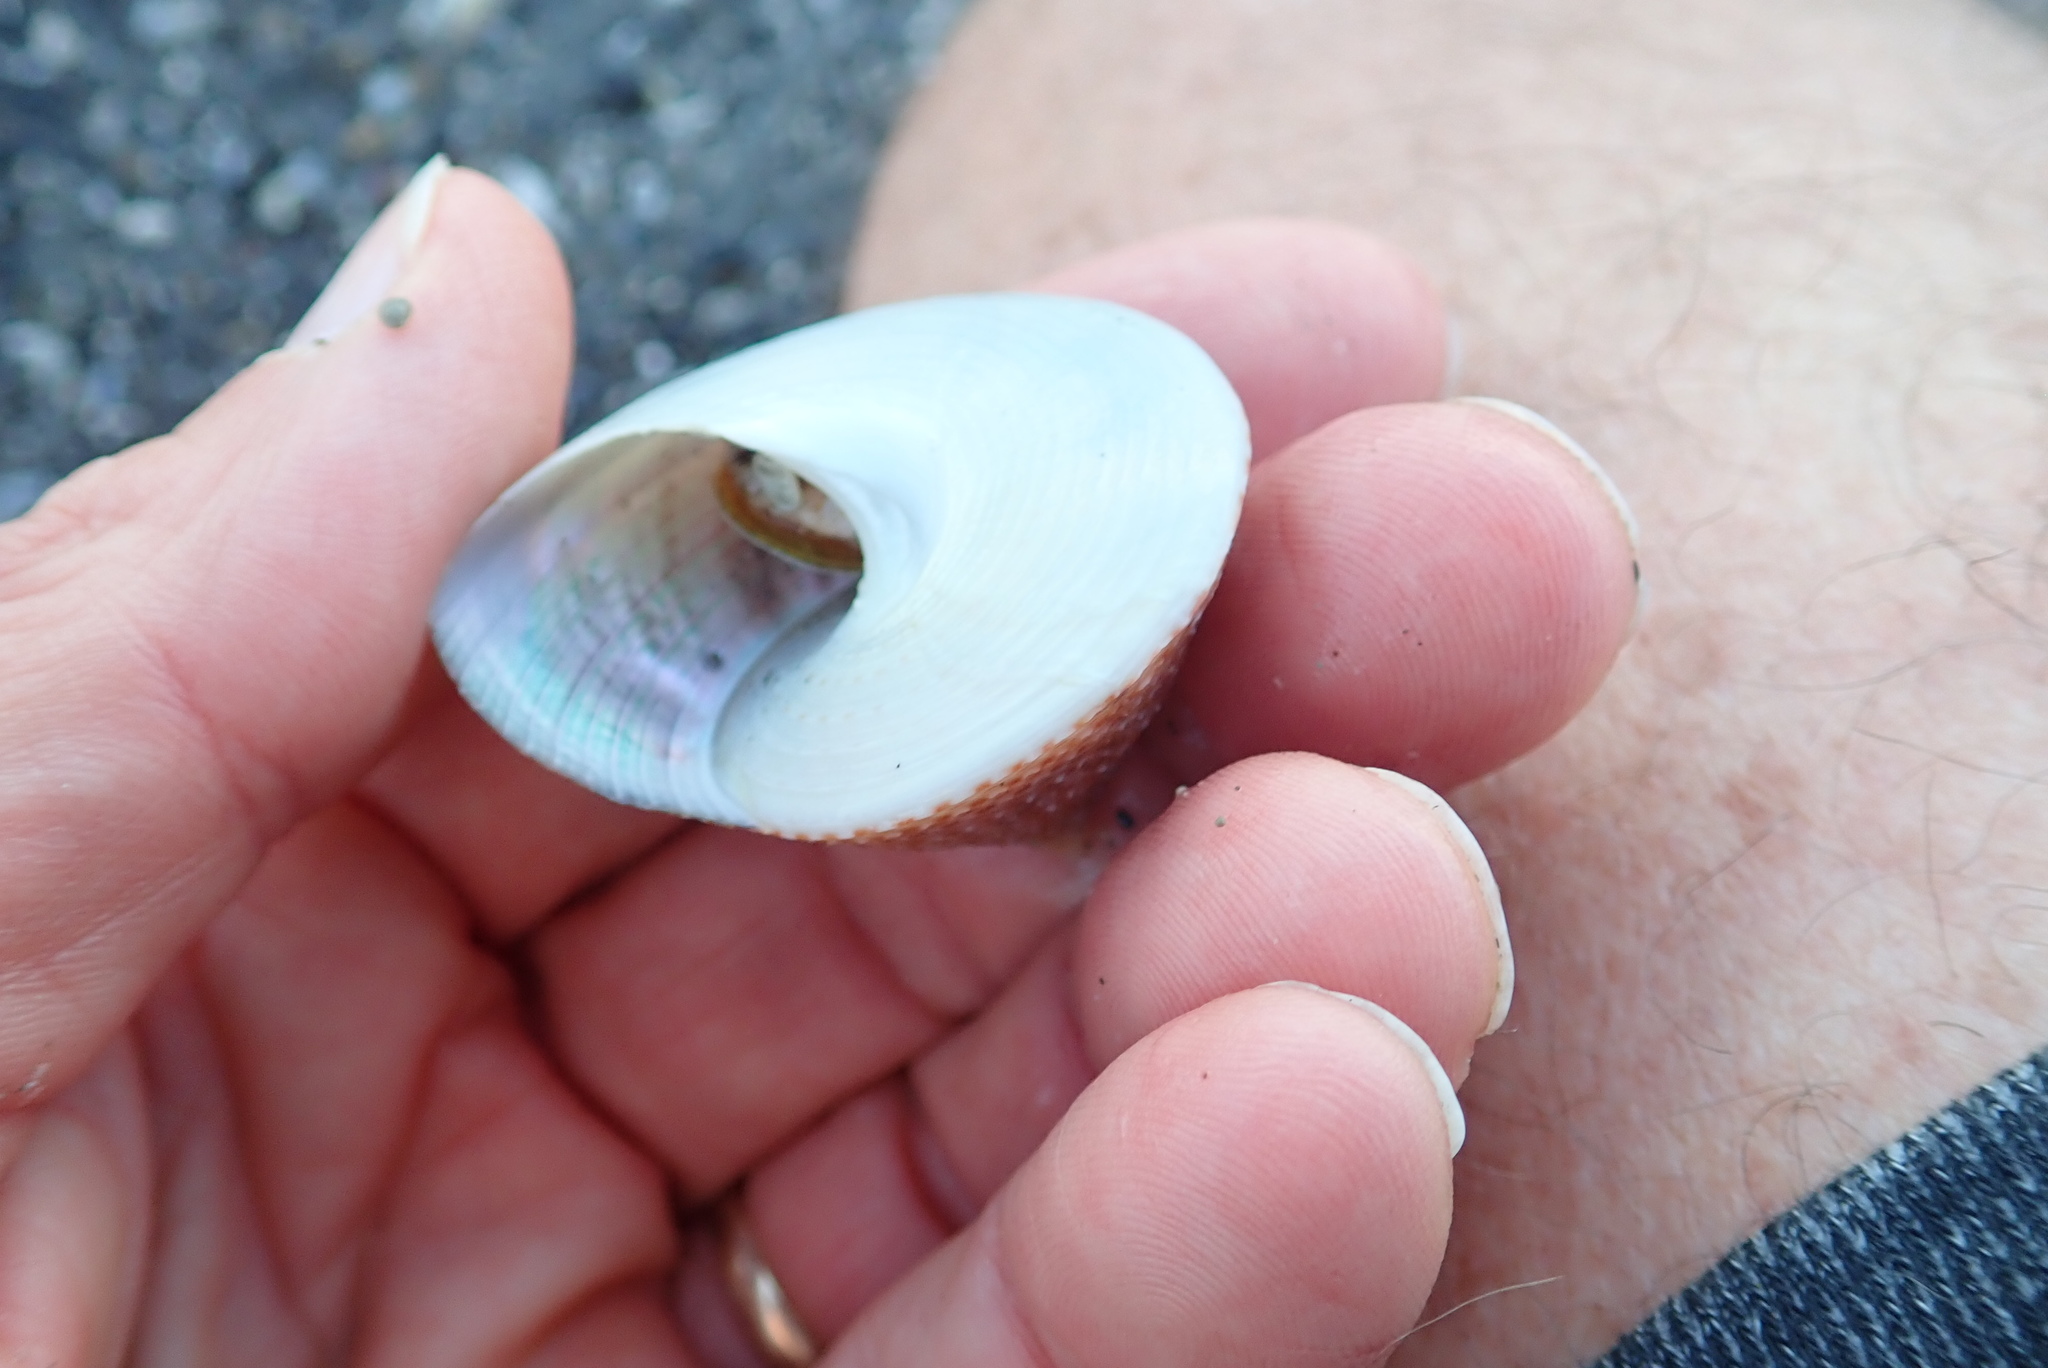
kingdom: Animalia
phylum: Mollusca
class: Gastropoda
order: Trochida
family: Calliostomatidae
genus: Maurea
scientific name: Maurea selecta
